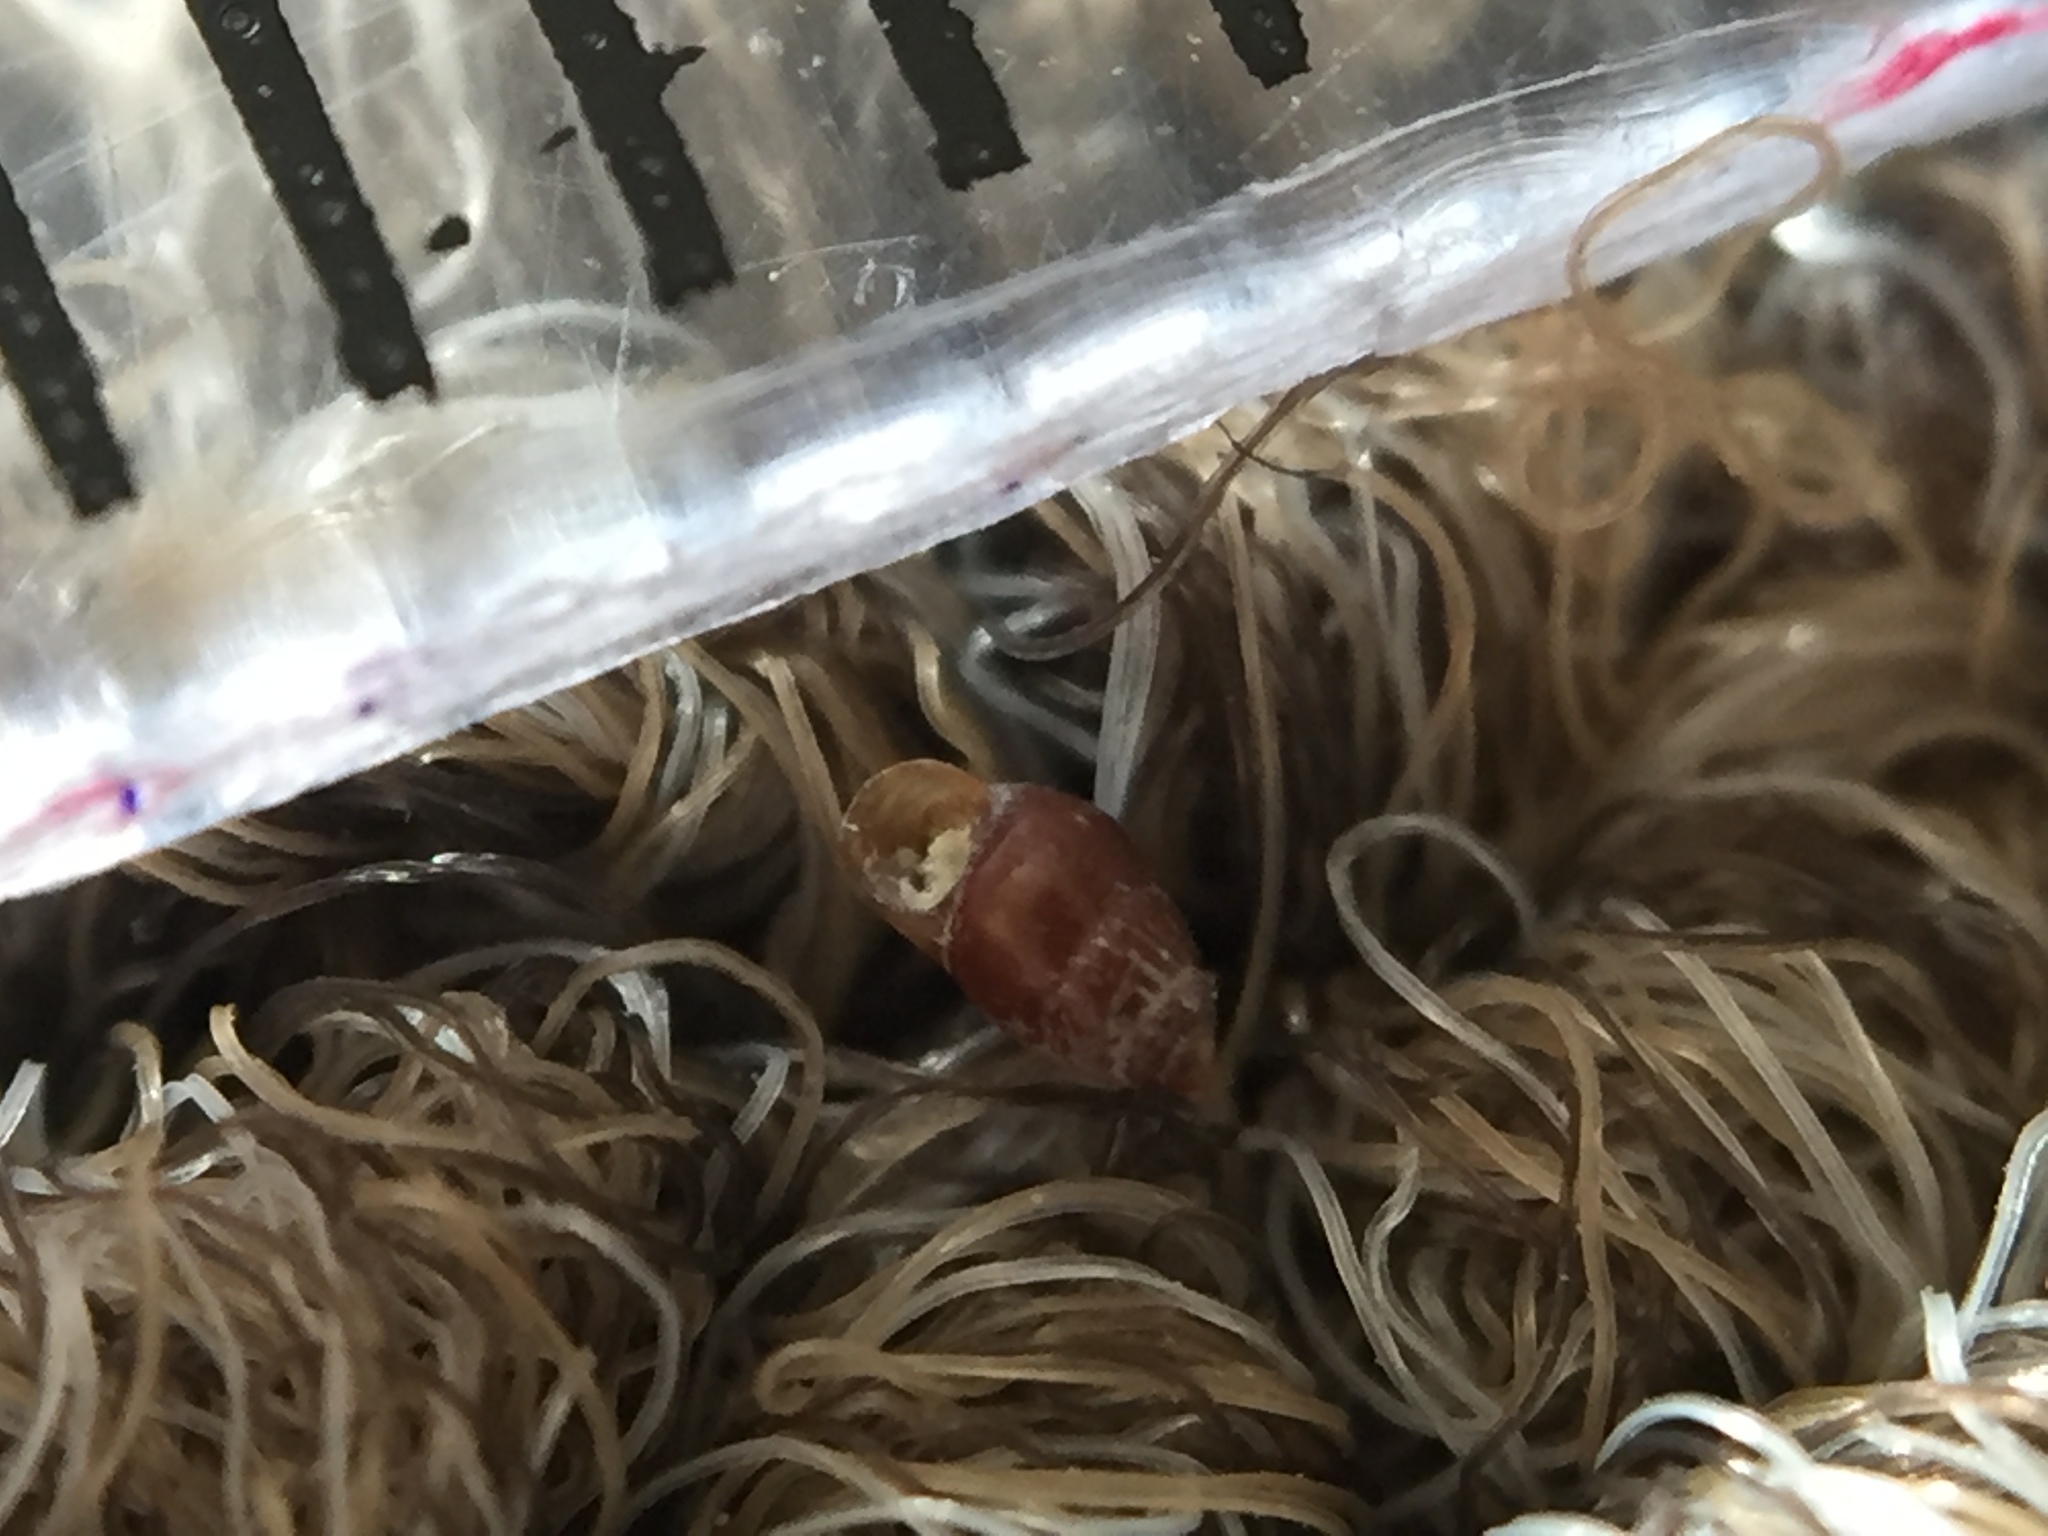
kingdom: Animalia
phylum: Mollusca
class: Gastropoda
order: Littorinimorpha
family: Anabathridae
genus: Amphithalamus
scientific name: Amphithalamus semen
